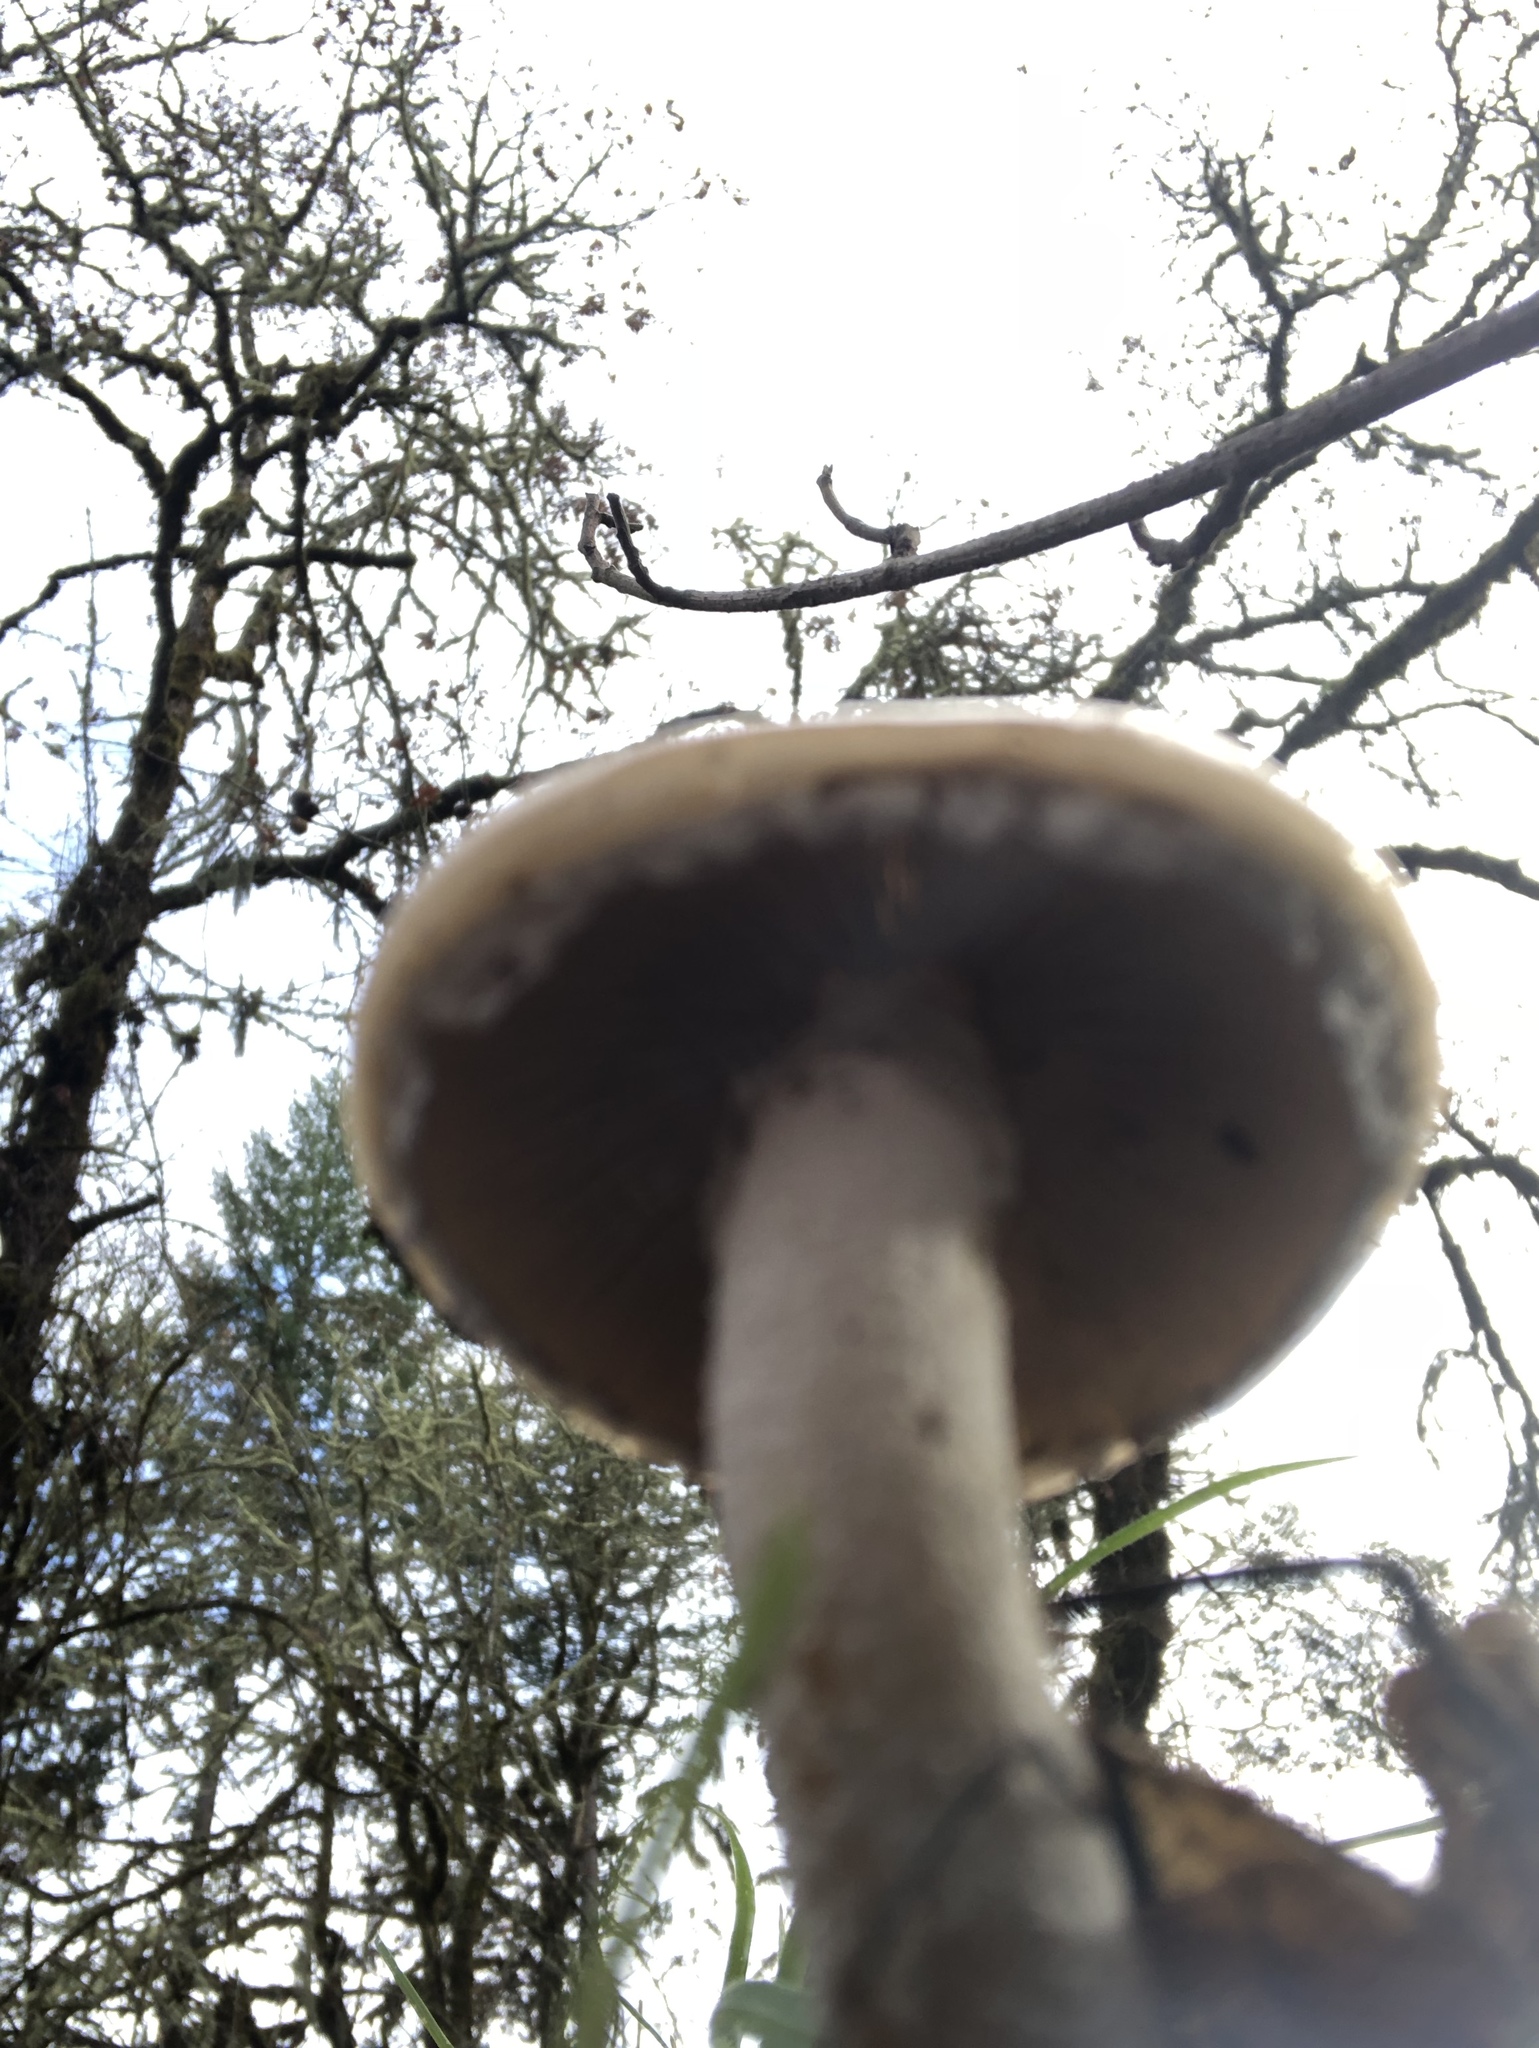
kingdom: Fungi
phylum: Basidiomycota
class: Agaricomycetes
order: Agaricales
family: Strophariaceae
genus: Stropharia
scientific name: Stropharia ambigua
